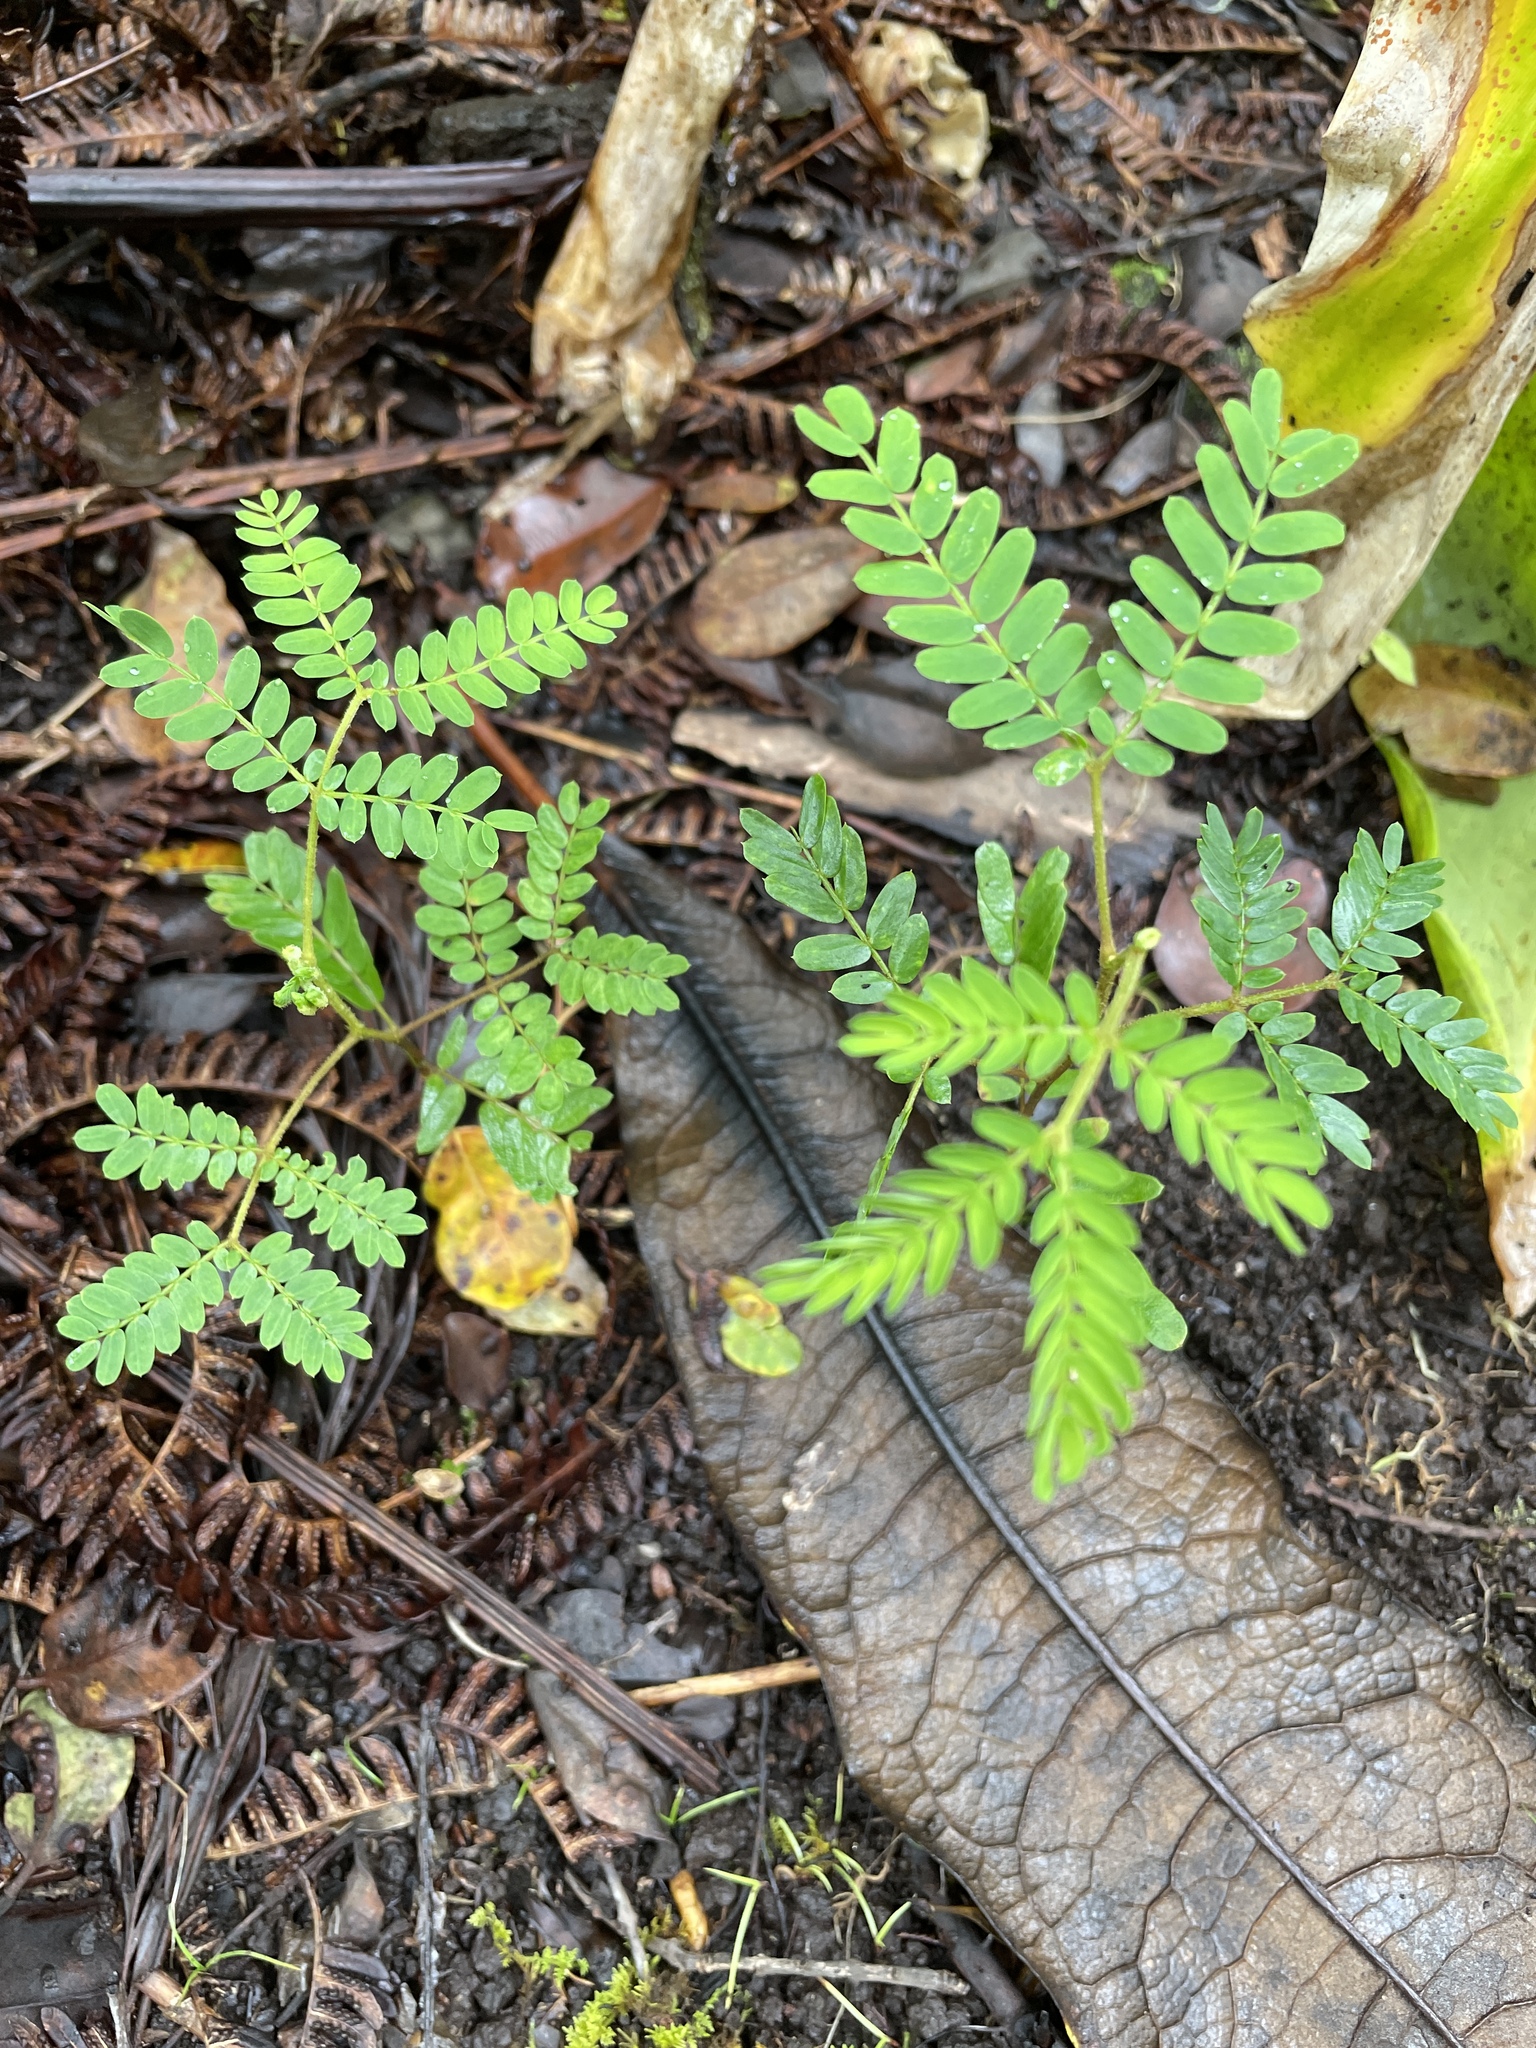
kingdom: Plantae
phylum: Tracheophyta
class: Magnoliopsida
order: Fabales
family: Fabaceae
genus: Acacia
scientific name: Acacia koa
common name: Gray koa
